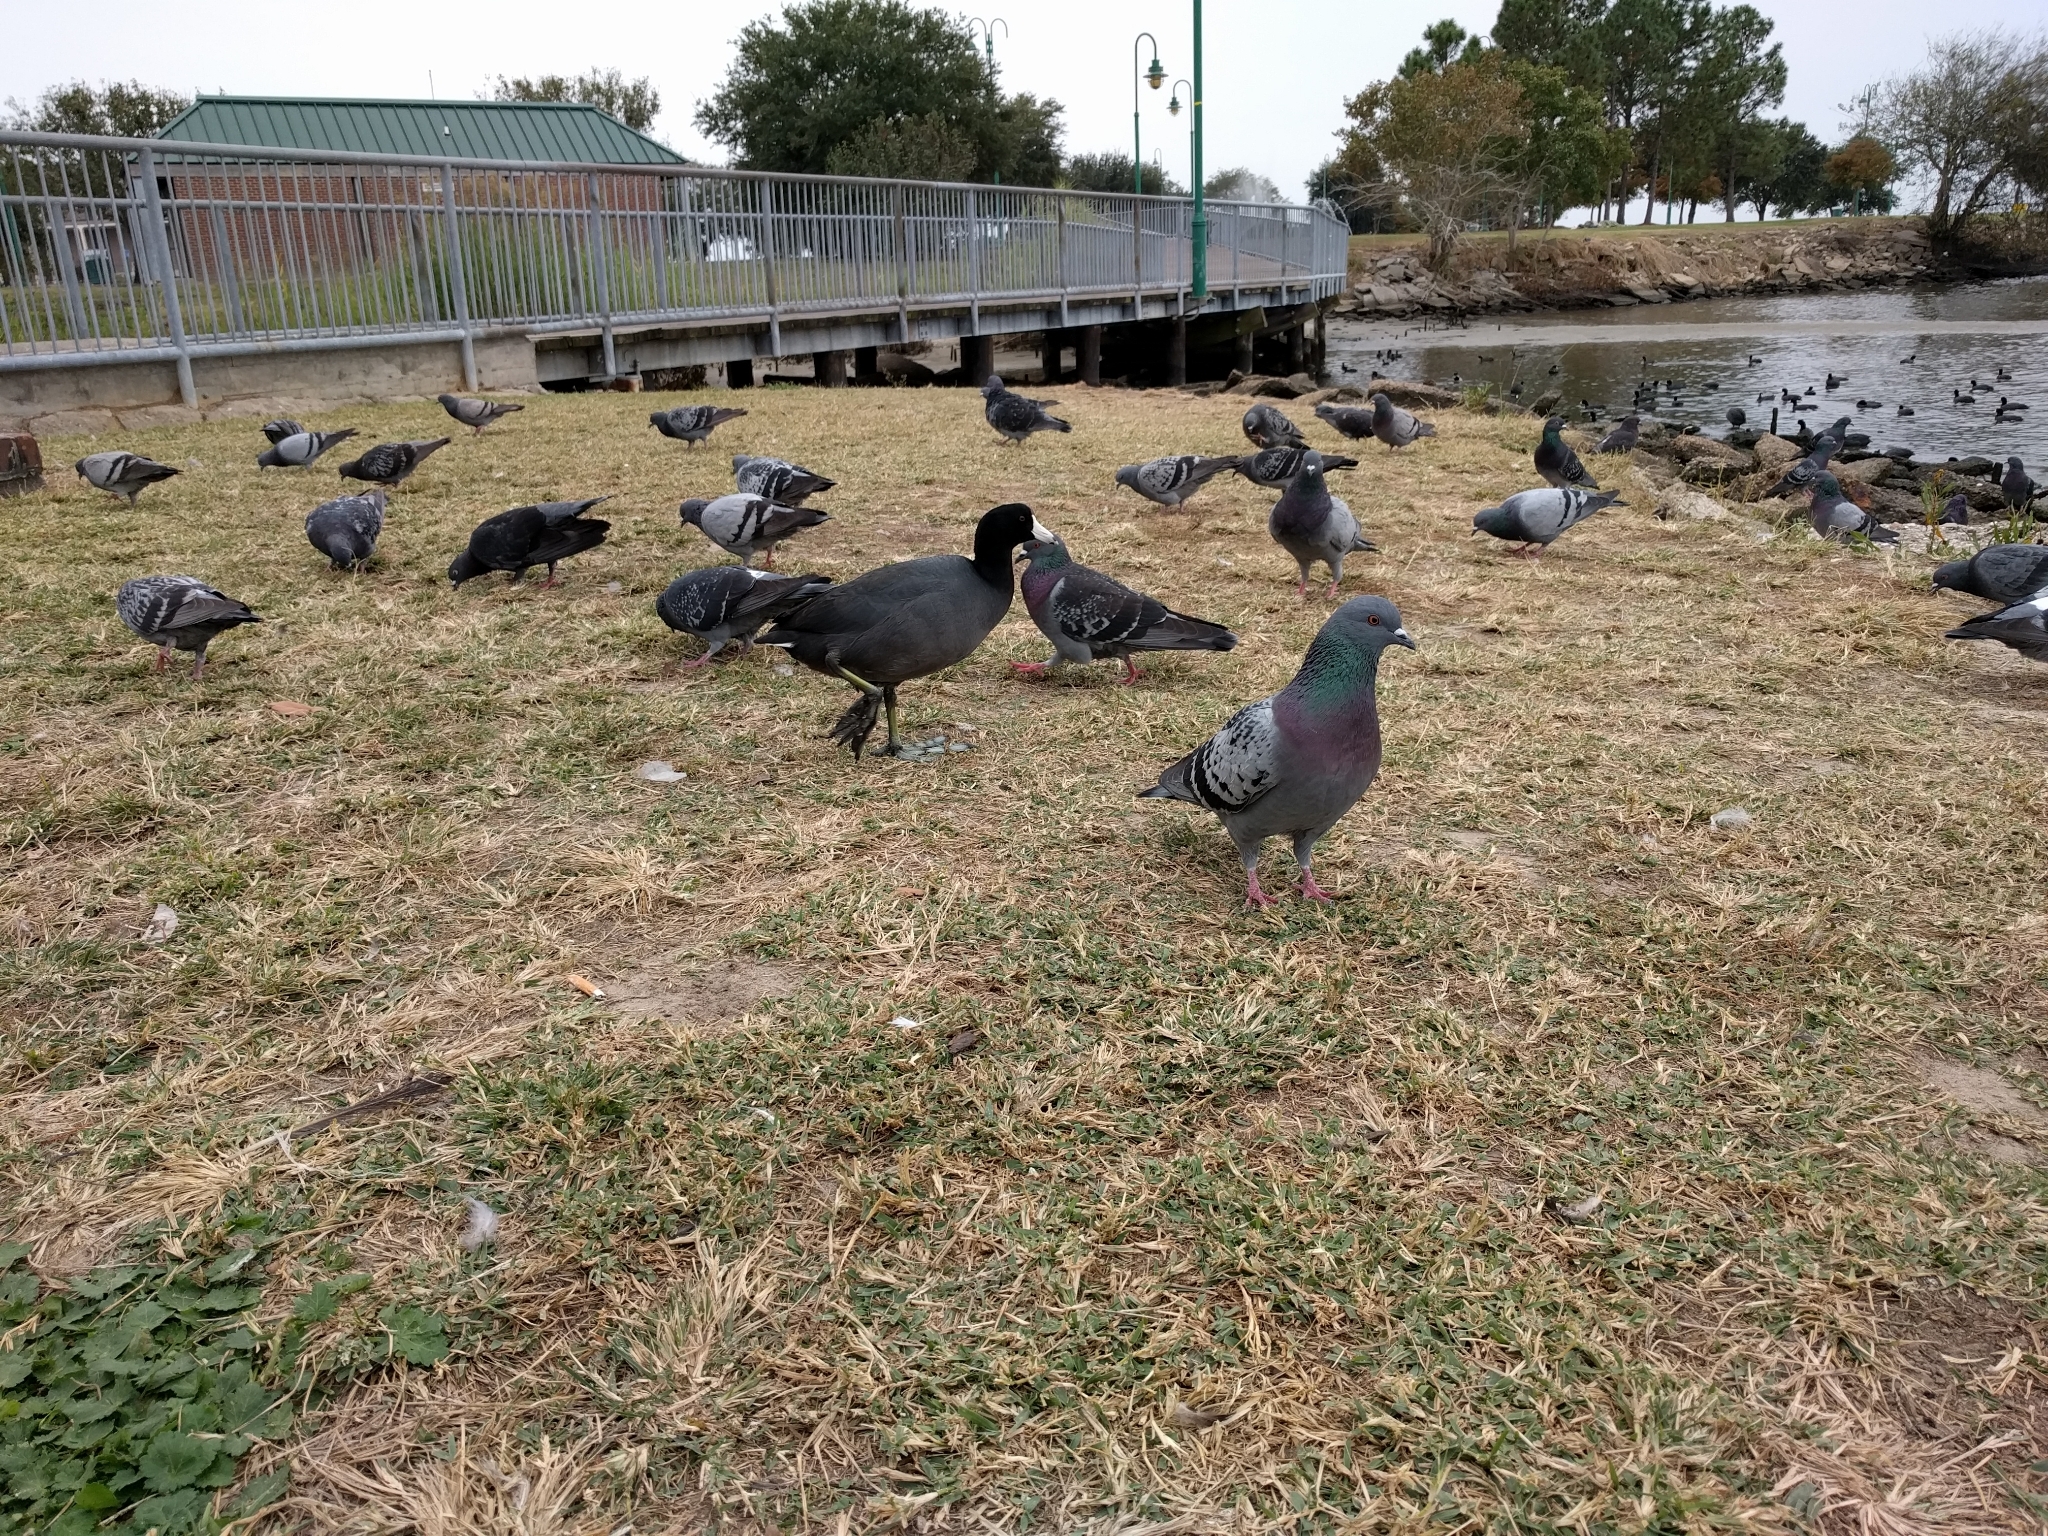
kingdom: Animalia
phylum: Chordata
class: Aves
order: Gruiformes
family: Rallidae
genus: Fulica
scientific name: Fulica americana
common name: American coot
